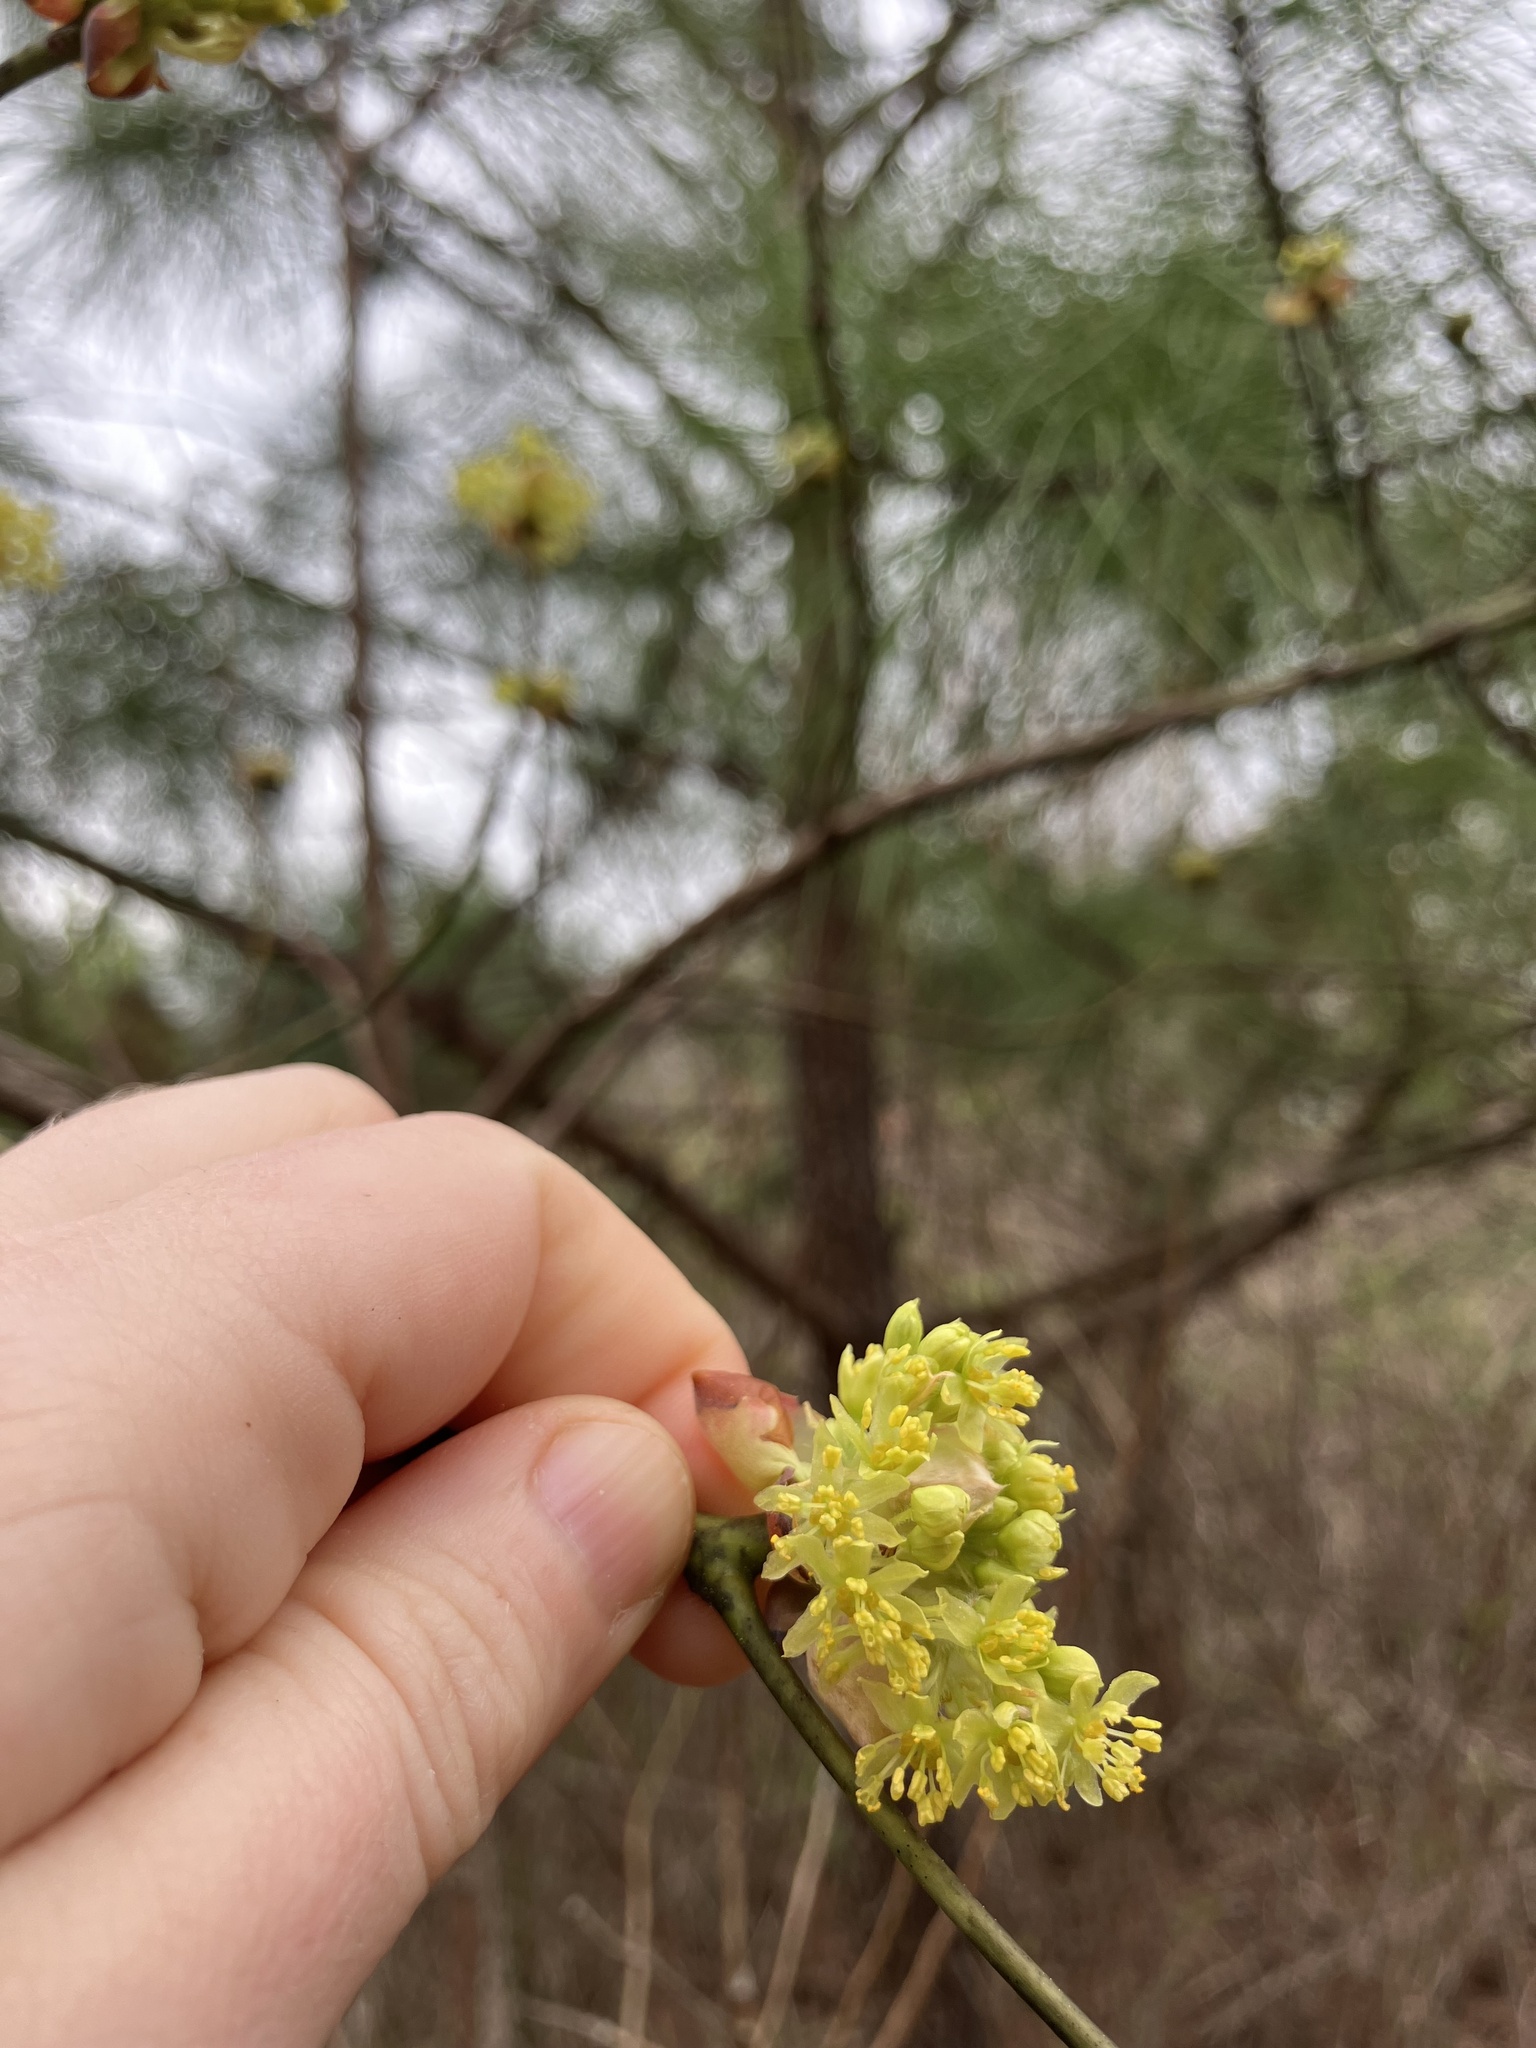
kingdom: Plantae
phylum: Tracheophyta
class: Magnoliopsida
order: Laurales
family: Lauraceae
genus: Sassafras
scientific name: Sassafras albidum
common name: Sassafras
